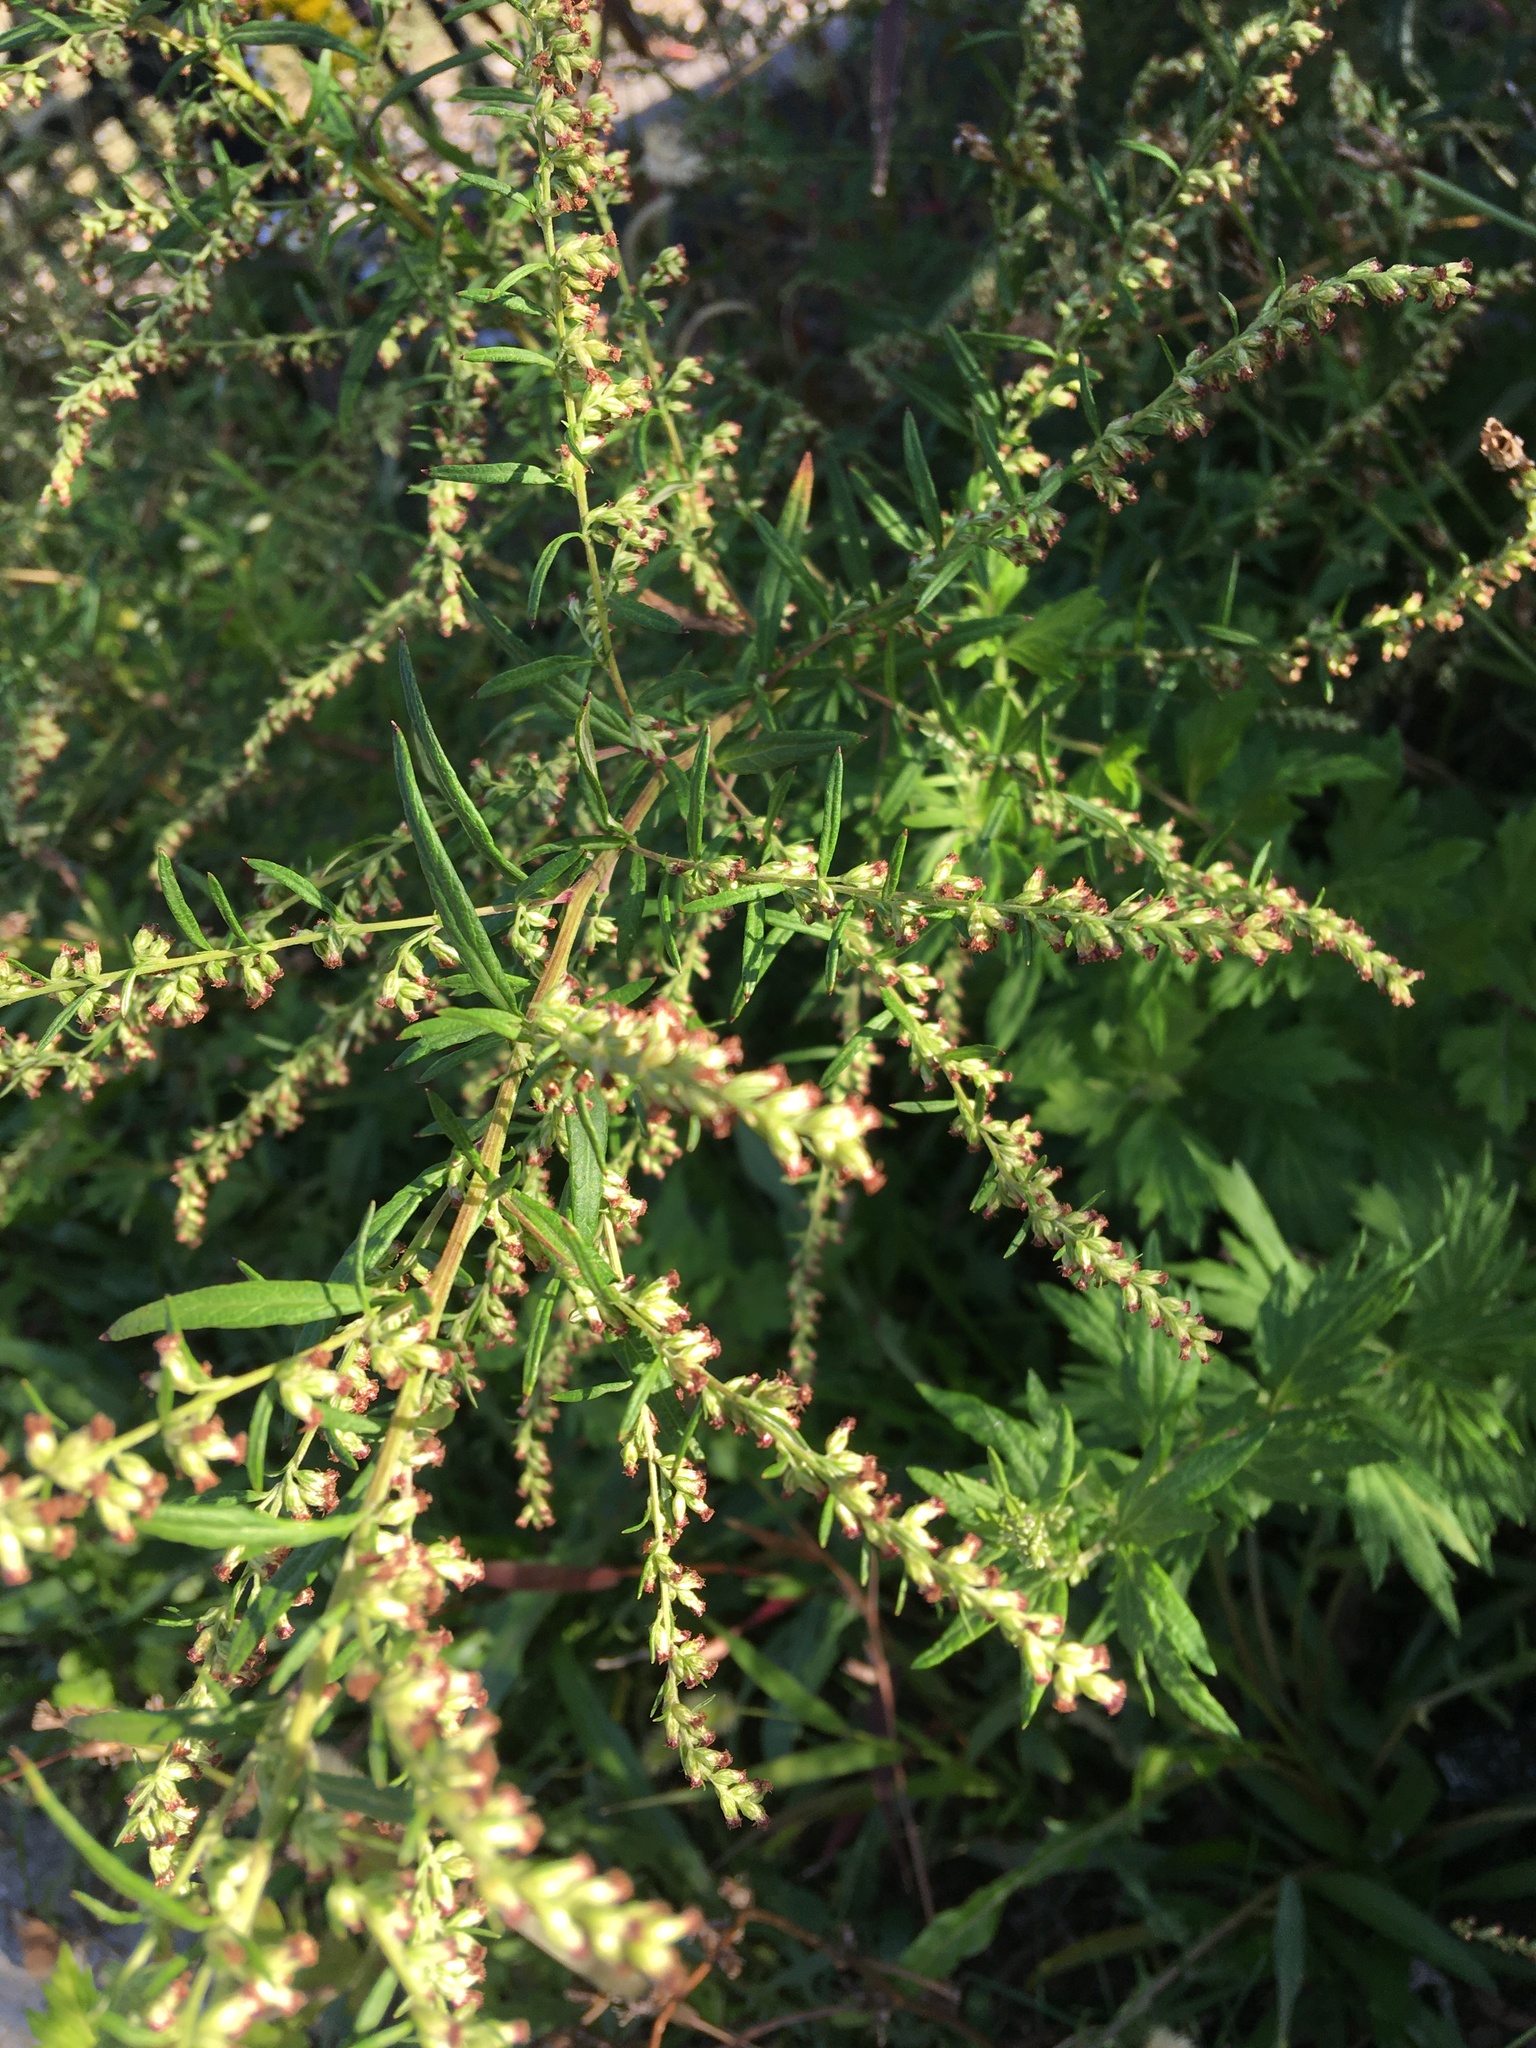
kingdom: Plantae
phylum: Tracheophyta
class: Magnoliopsida
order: Asterales
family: Asteraceae
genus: Artemisia
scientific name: Artemisia vulgaris
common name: Mugwort
